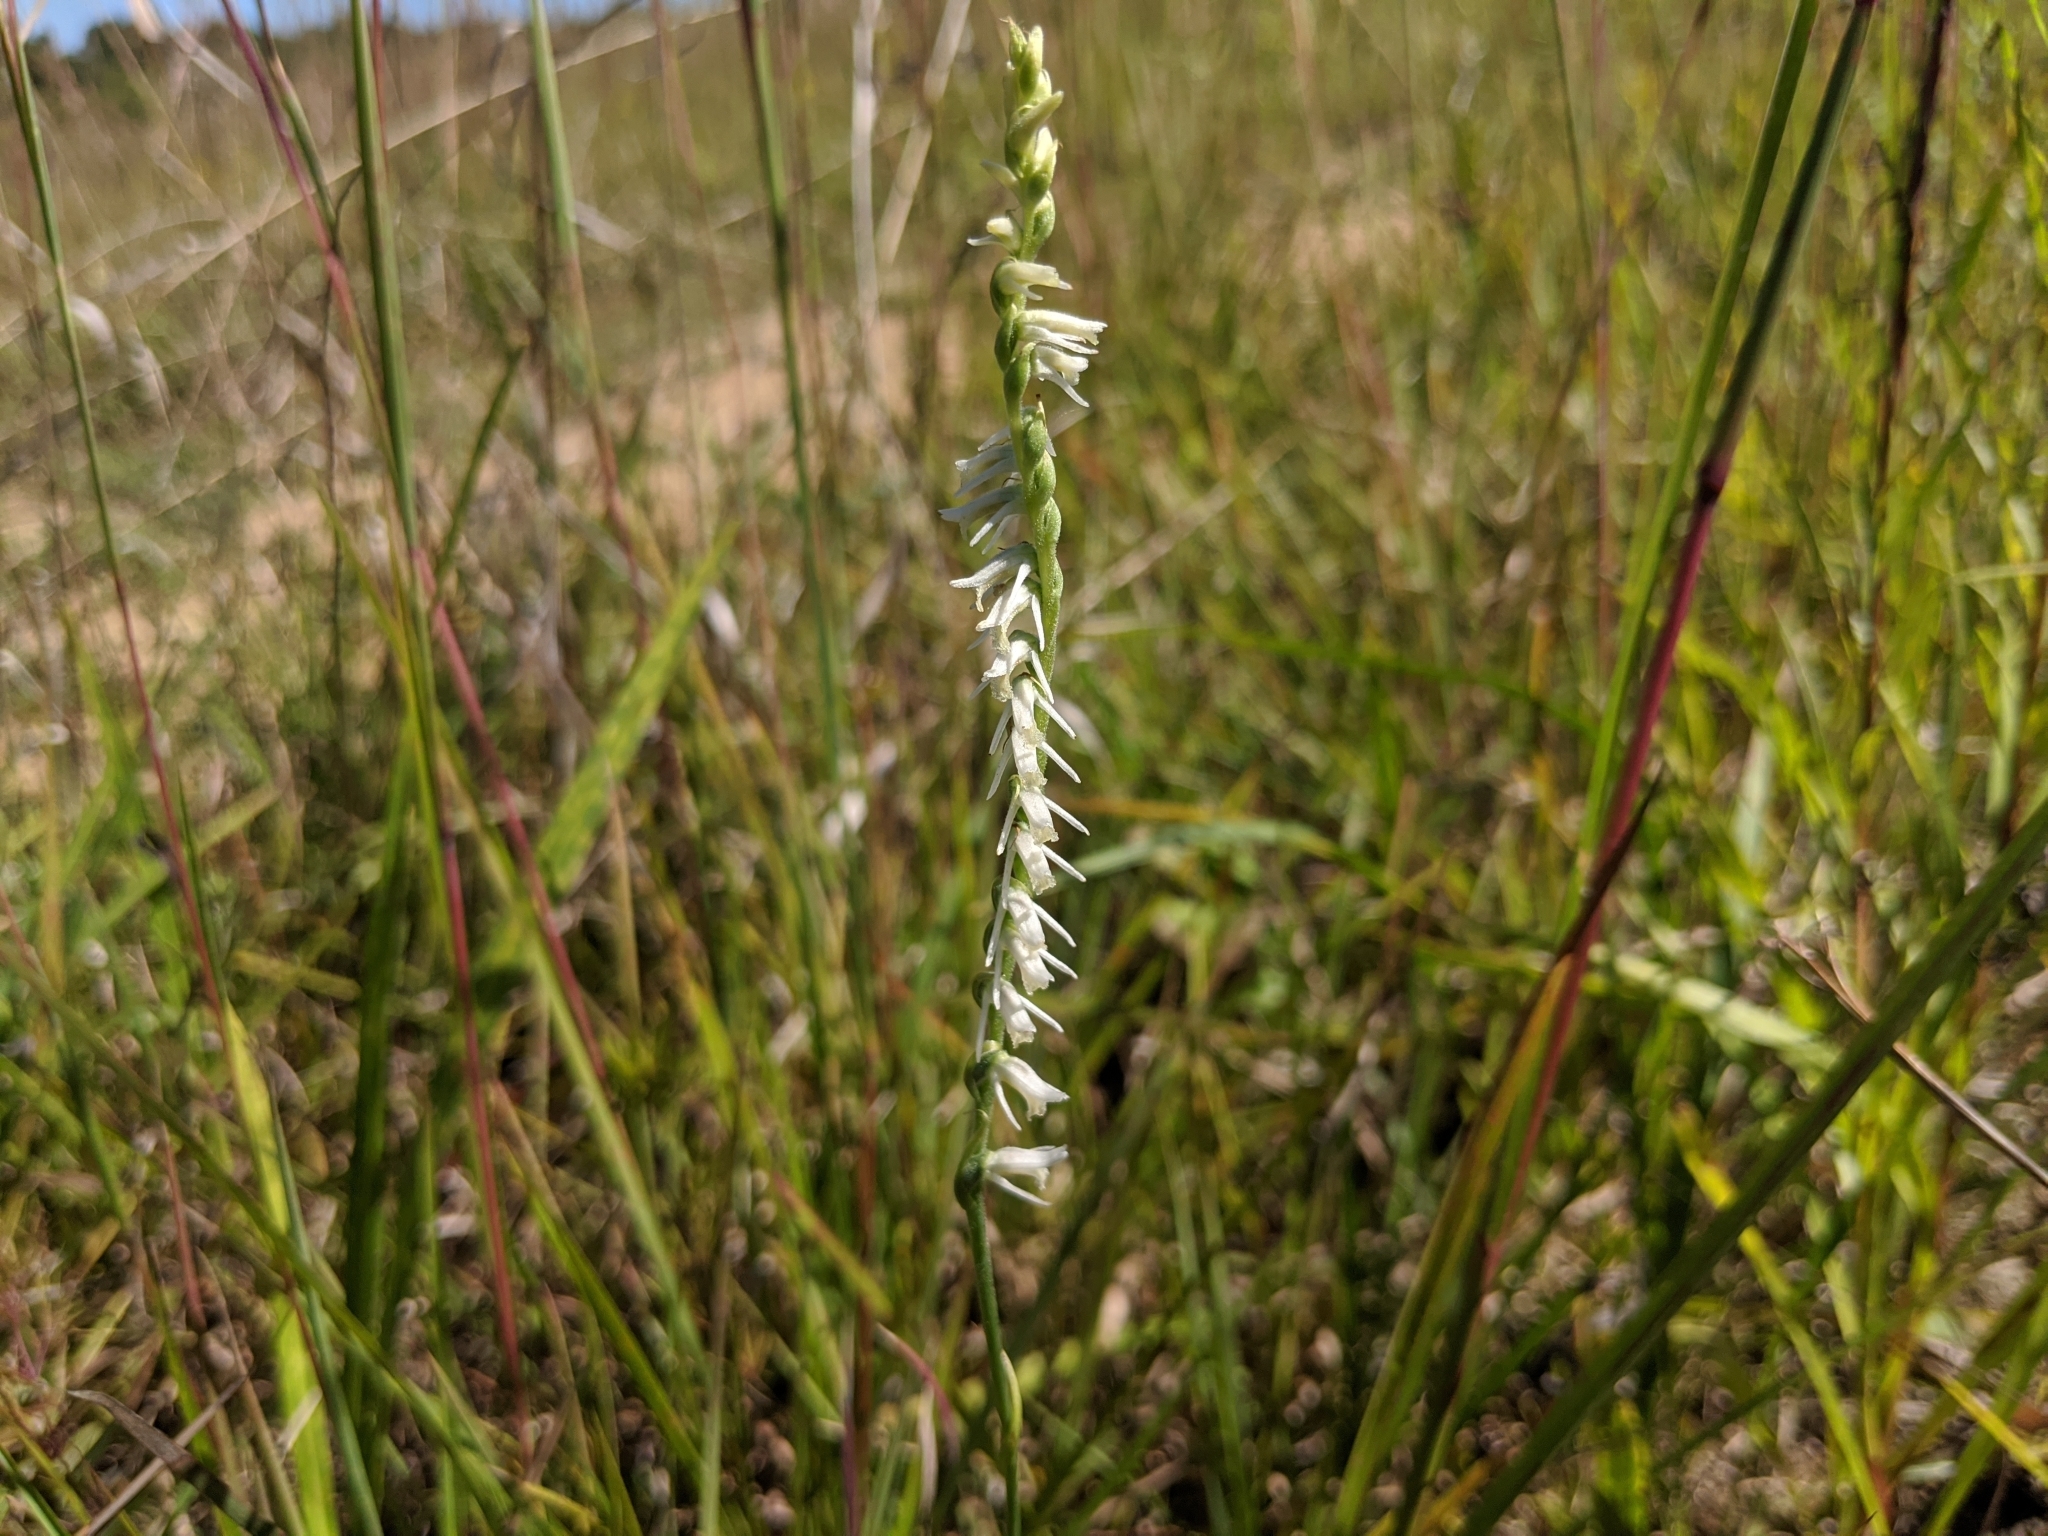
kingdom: Plantae
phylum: Tracheophyta
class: Liliopsida
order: Asparagales
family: Orchidaceae
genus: Spiranthes
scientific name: Spiranthes vernalis
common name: Spring ladies'-tresses
